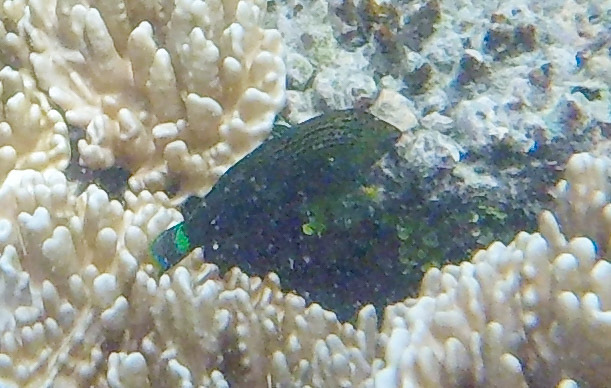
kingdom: Animalia
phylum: Chordata
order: Perciformes
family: Labridae
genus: Halichoeres
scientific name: Halichoeres
